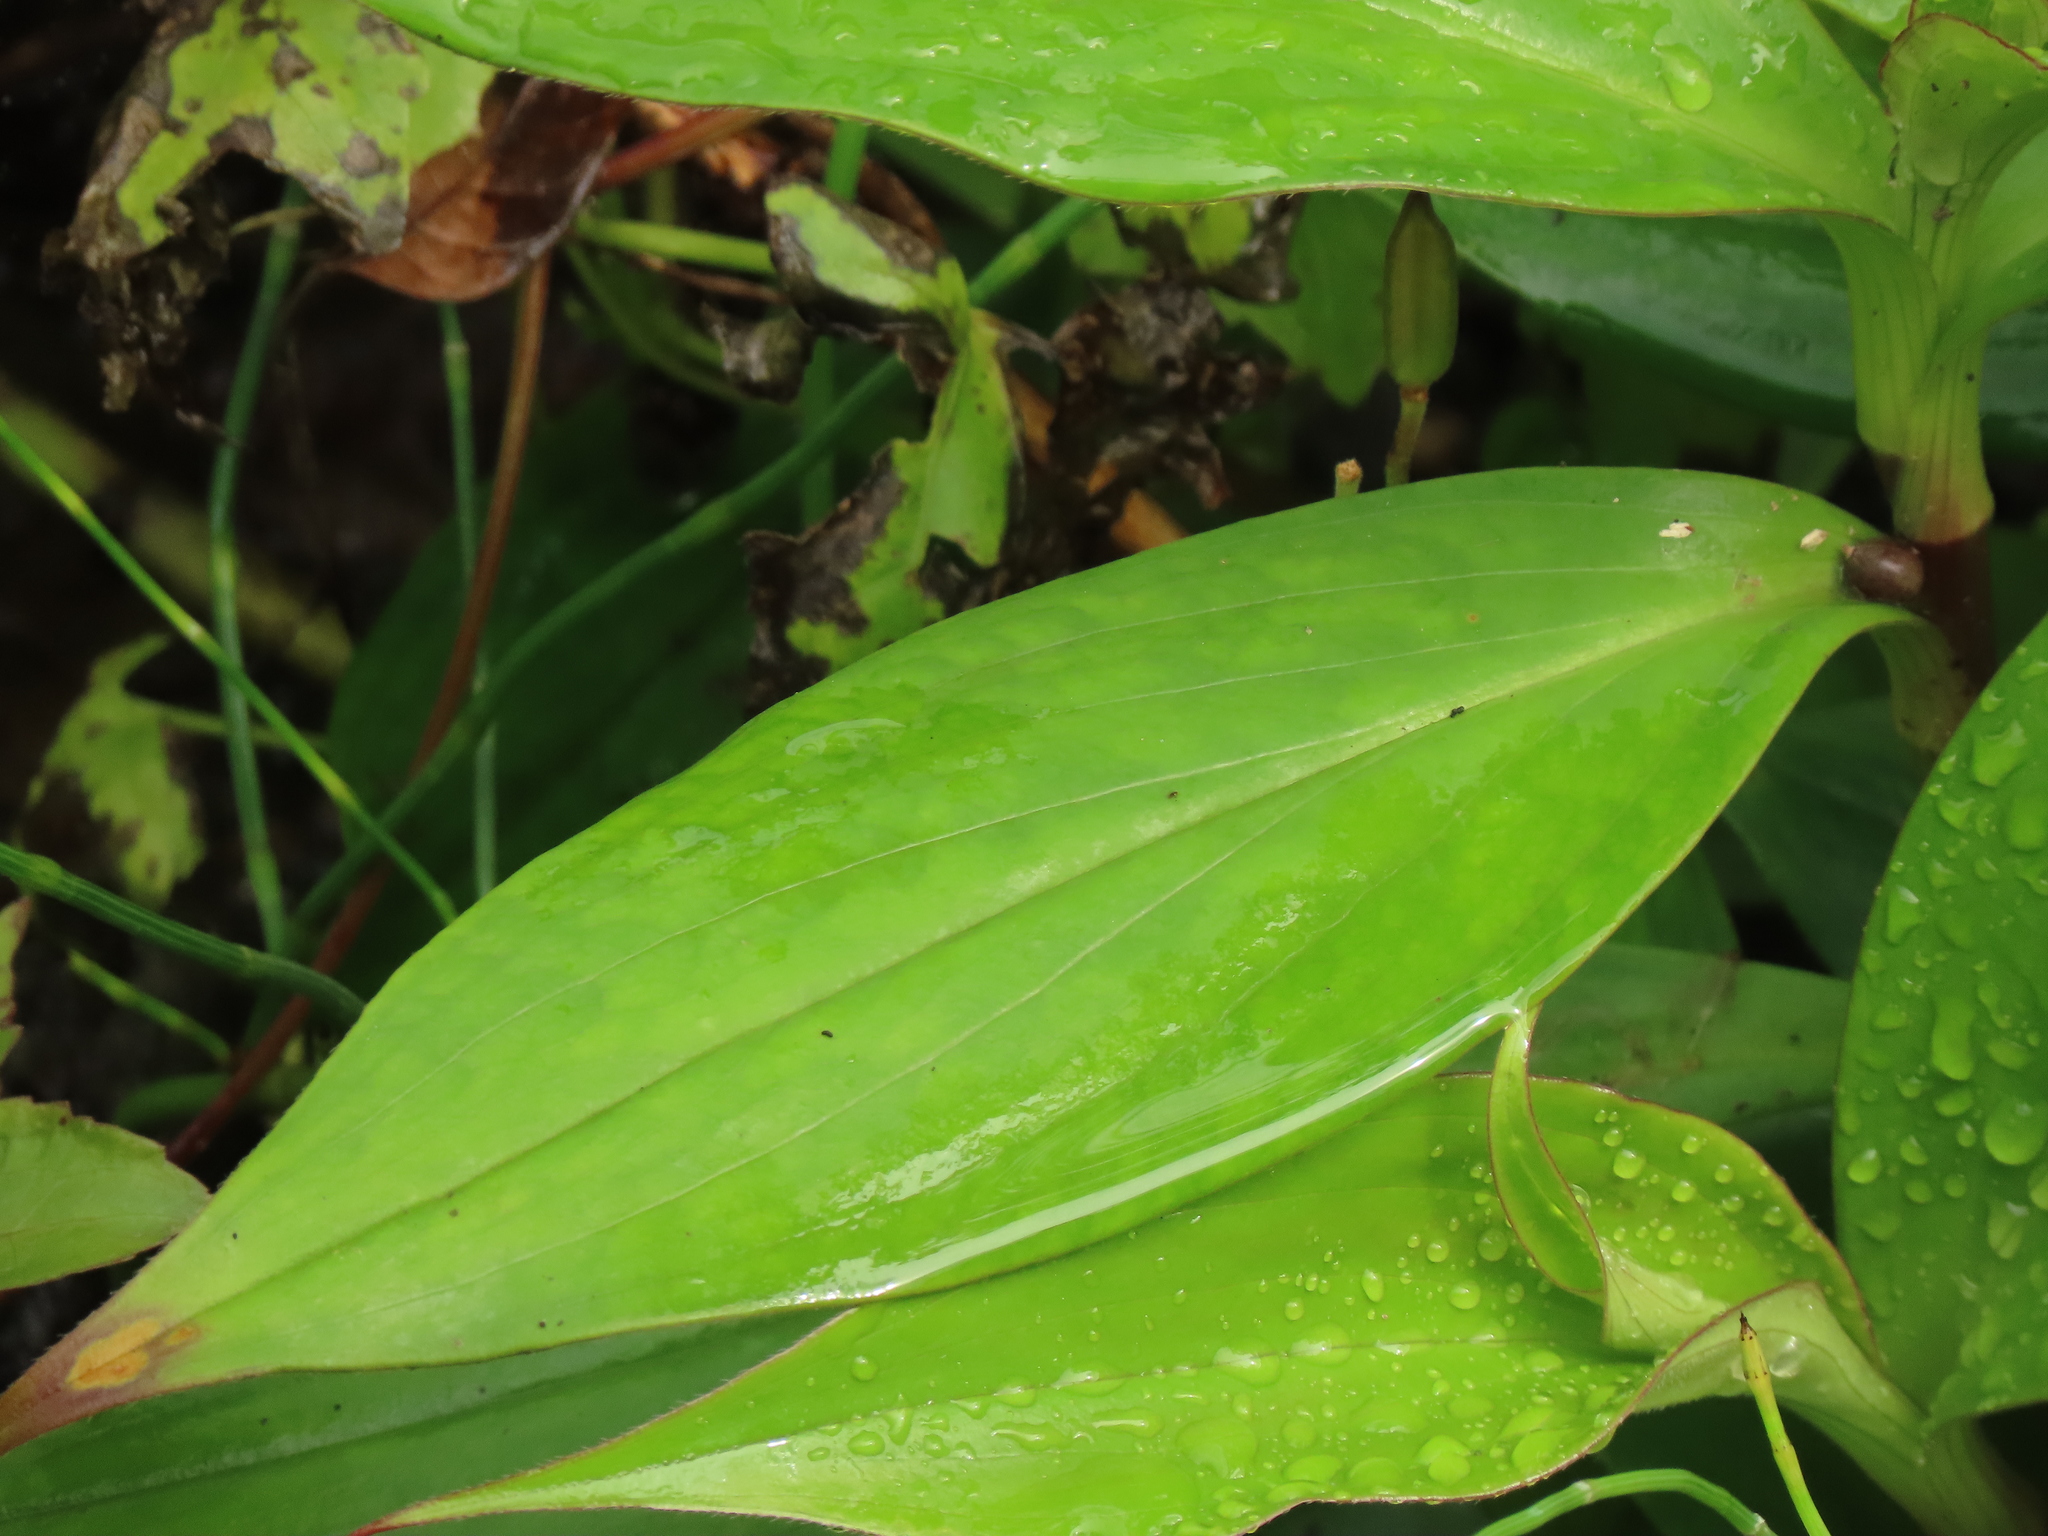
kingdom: Plantae
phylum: Tracheophyta
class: Liliopsida
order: Liliales
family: Liliaceae
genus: Tricyrtis
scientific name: Tricyrtis formosana
